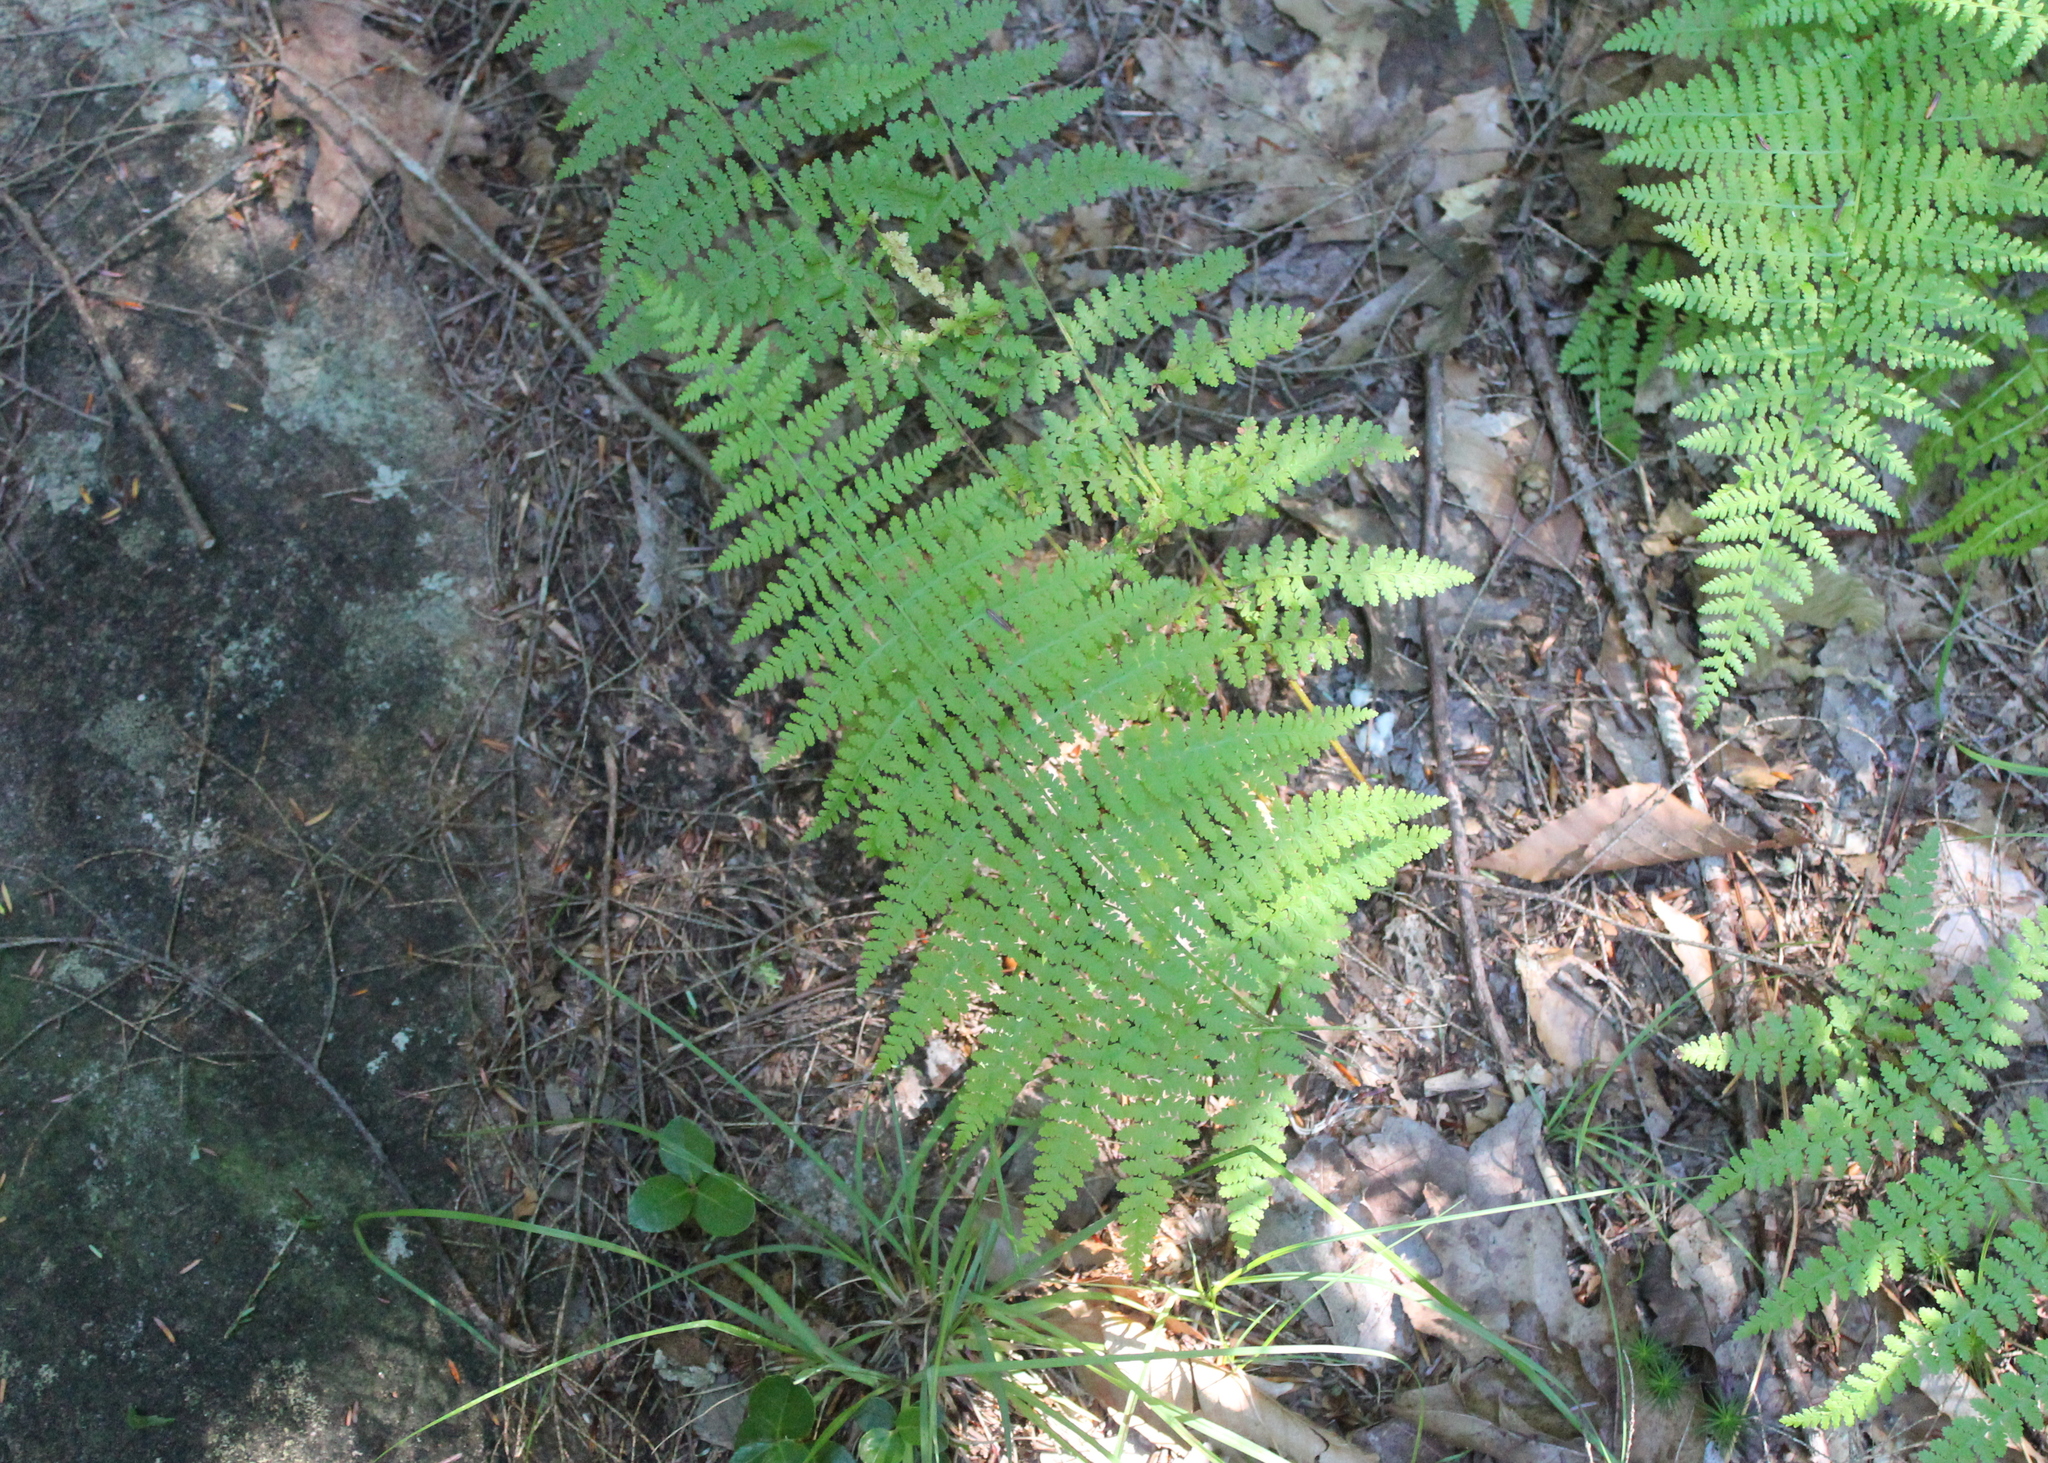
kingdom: Plantae
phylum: Tracheophyta
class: Polypodiopsida
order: Polypodiales
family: Dennstaedtiaceae
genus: Sitobolium
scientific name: Sitobolium punctilobum
